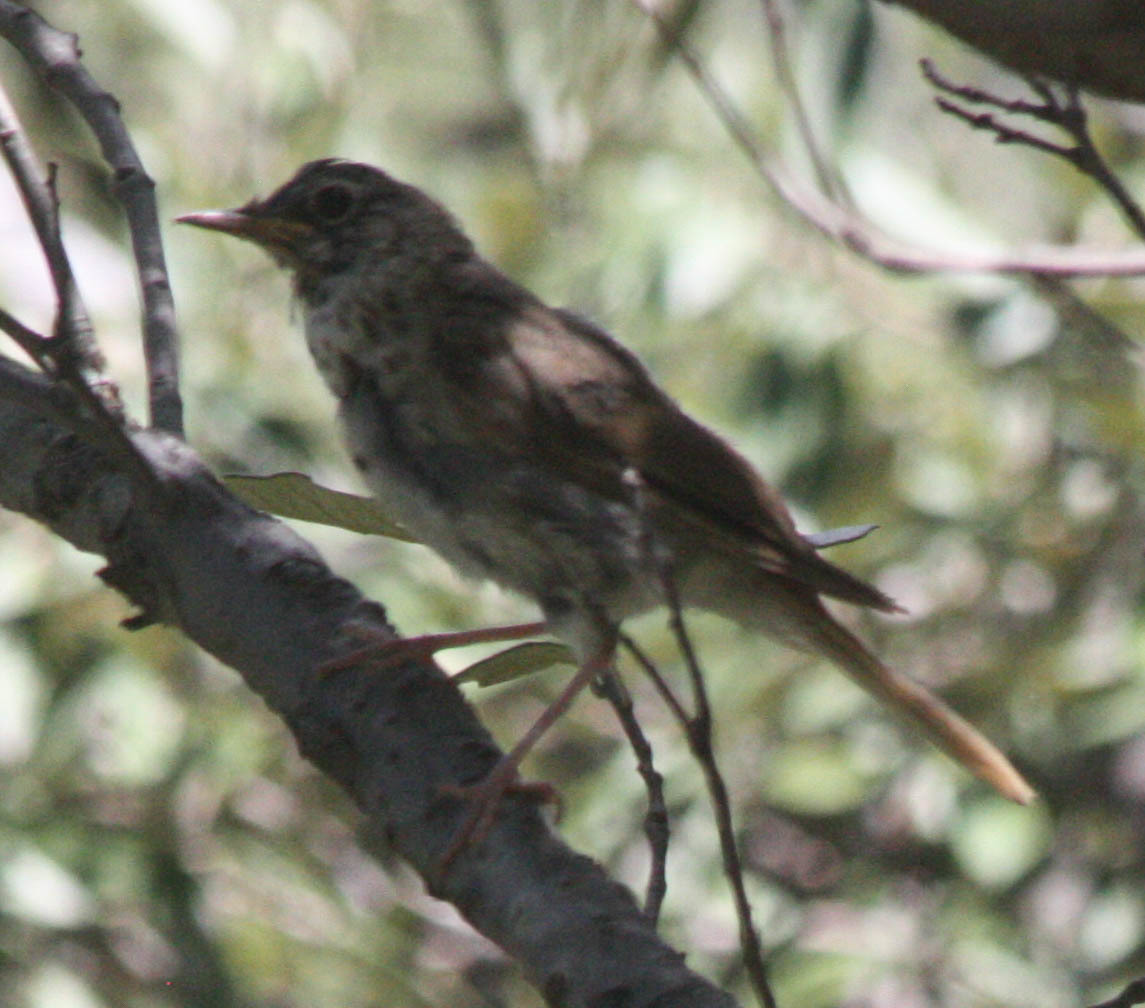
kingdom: Animalia
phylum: Chordata
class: Aves
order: Passeriformes
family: Turdidae
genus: Catharus
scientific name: Catharus guttatus
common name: Hermit thrush
